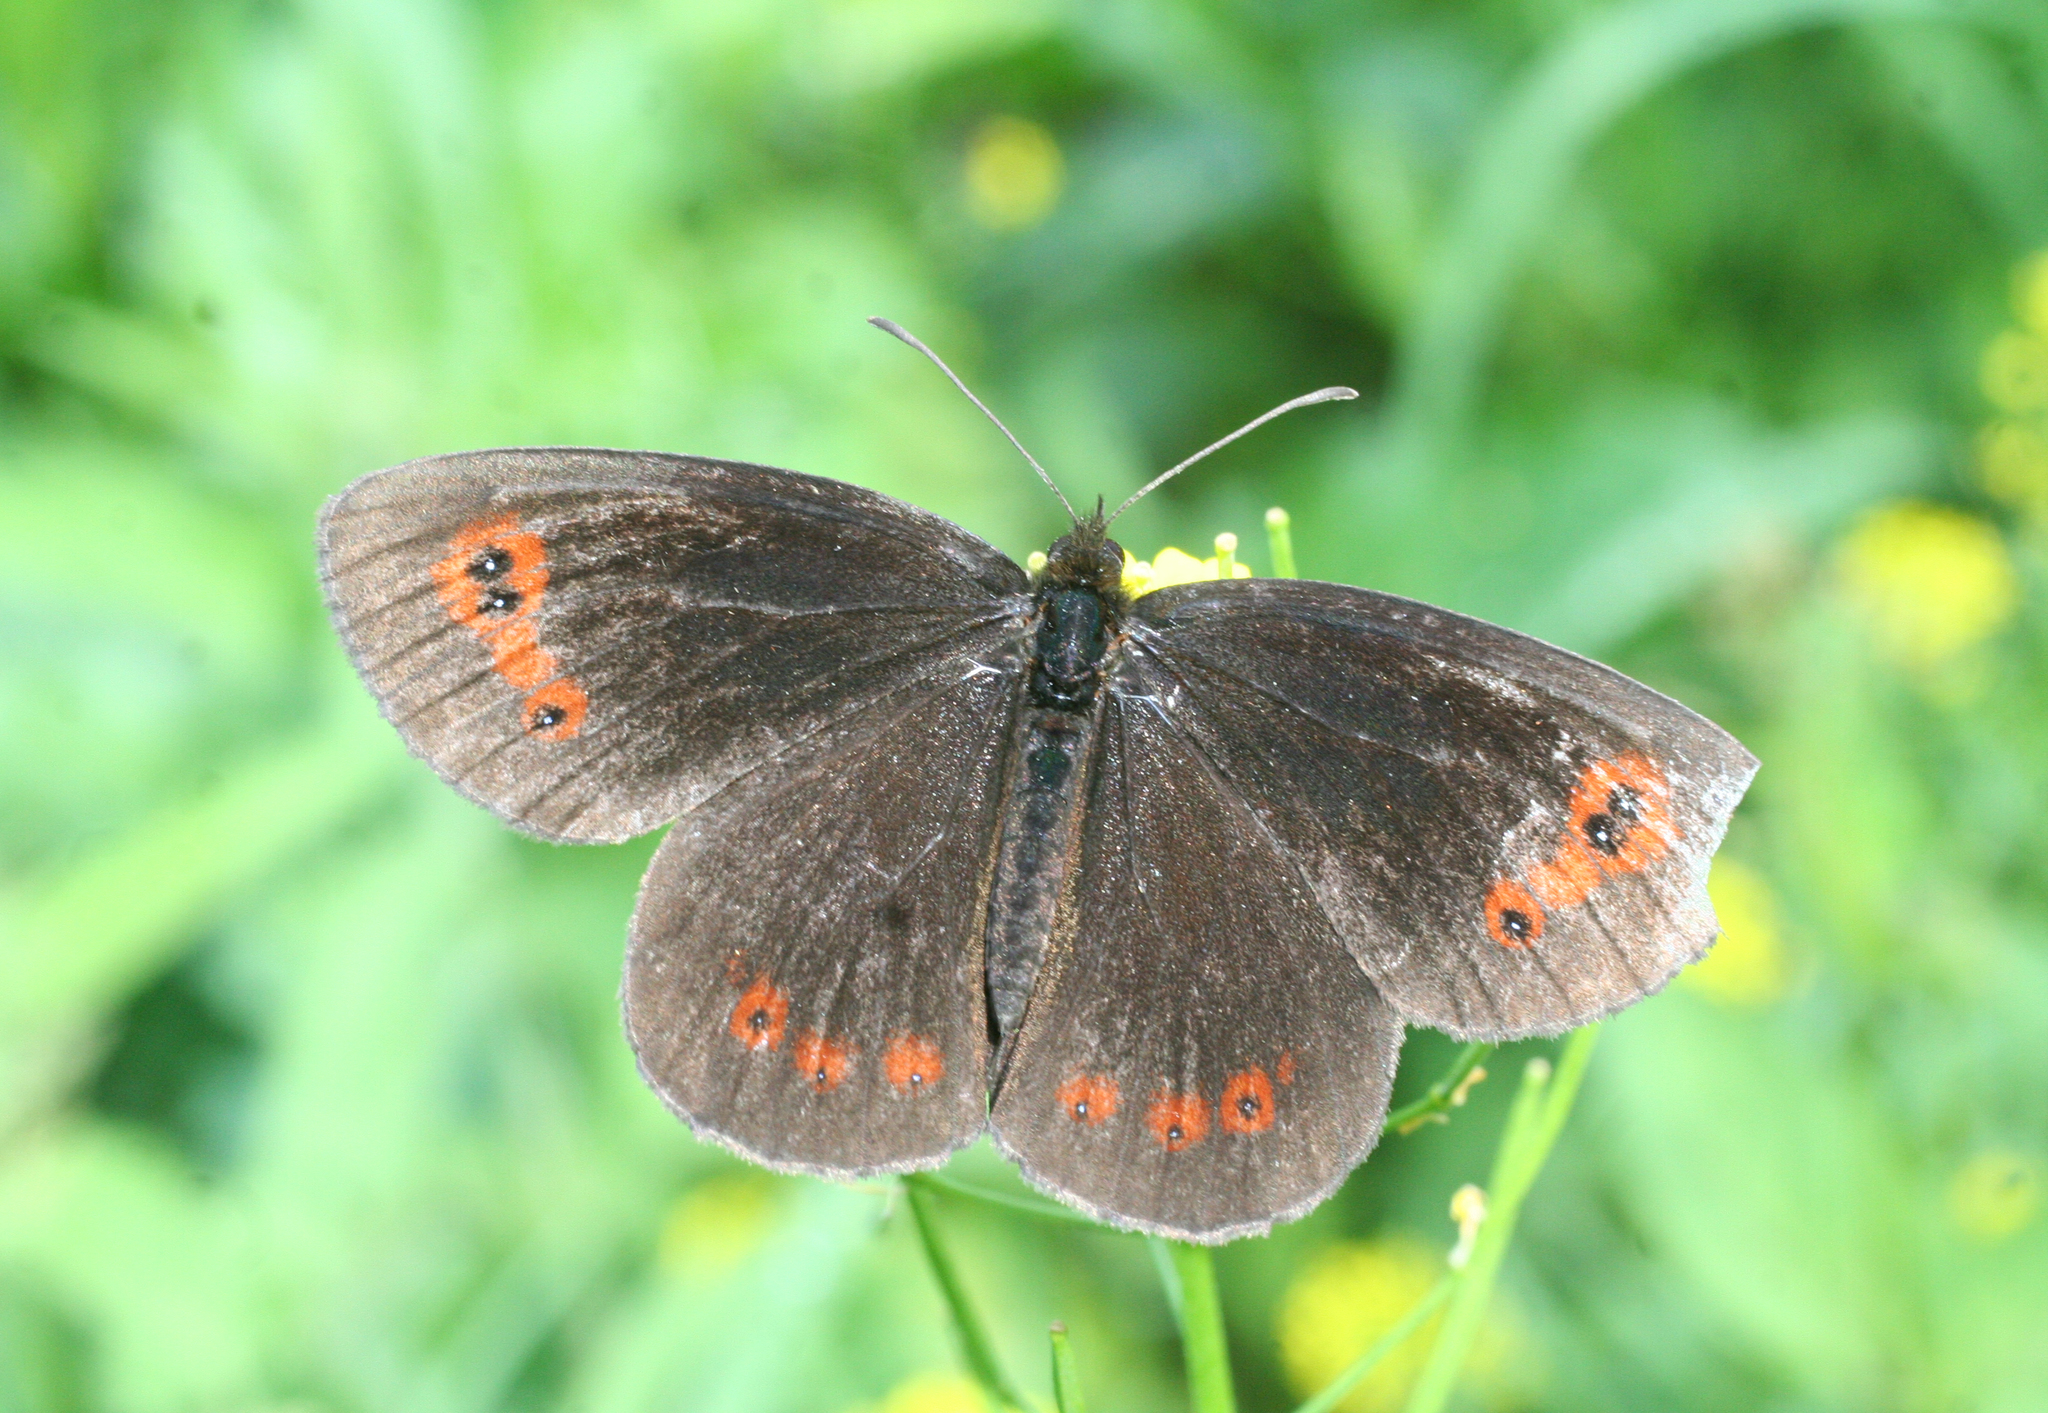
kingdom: Animalia
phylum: Arthropoda
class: Insecta
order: Lepidoptera
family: Nymphalidae
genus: Erebia
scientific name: Erebia aethiops
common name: Scotch argus
